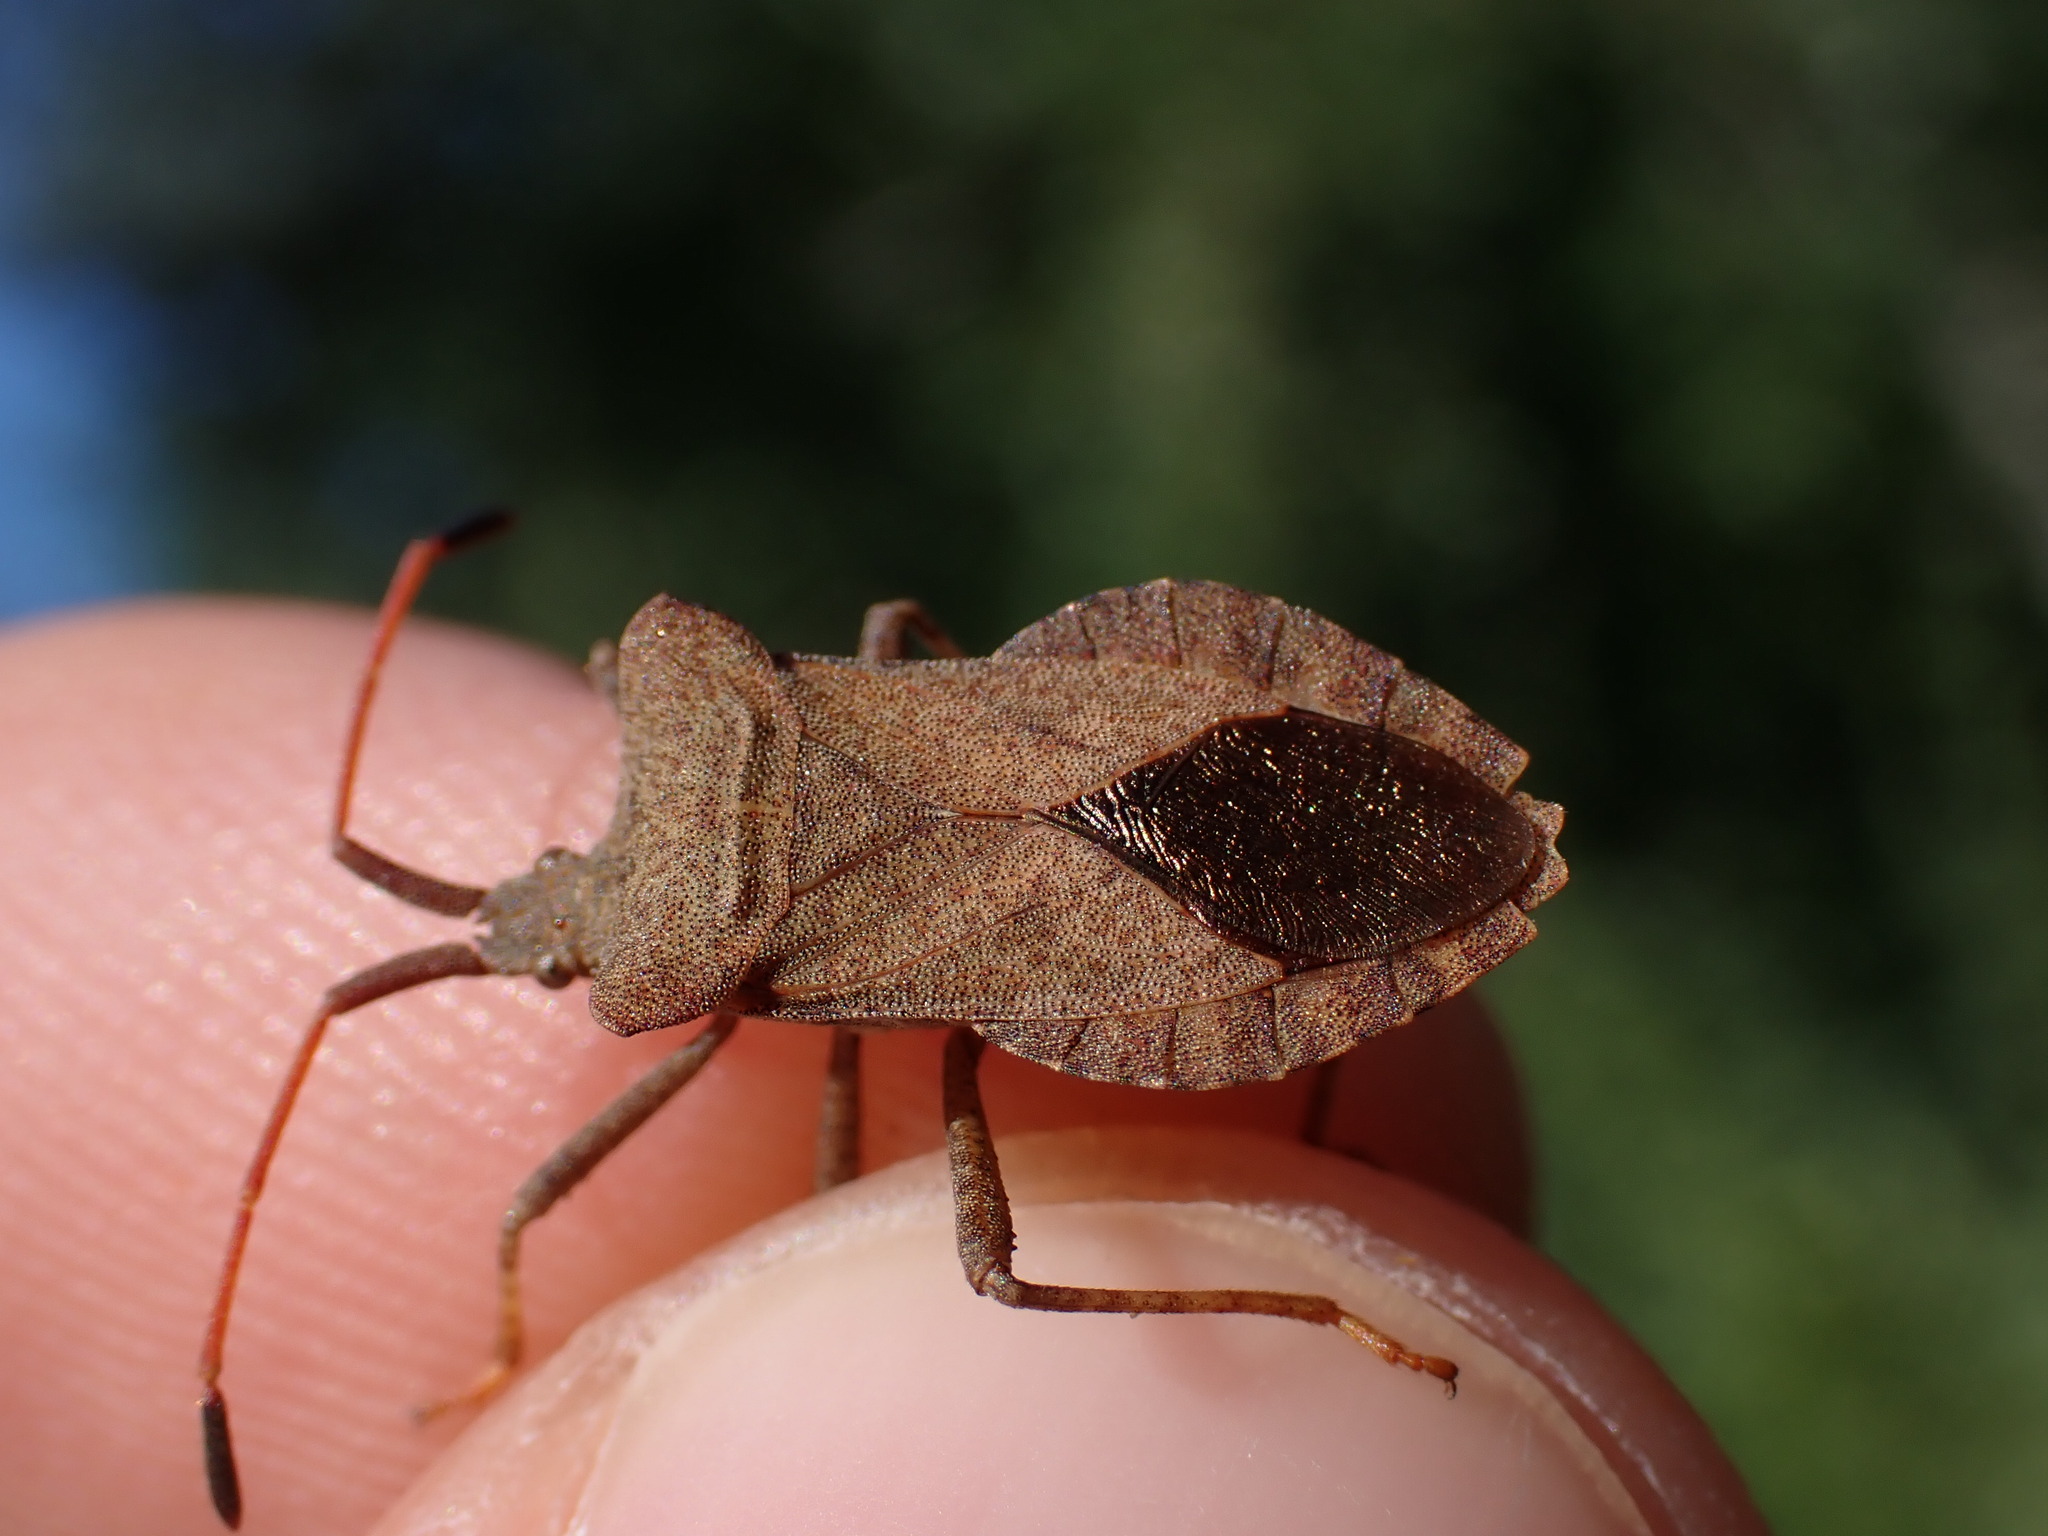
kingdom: Animalia
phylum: Arthropoda
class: Insecta
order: Hemiptera
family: Coreidae
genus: Coreus
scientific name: Coreus marginatus
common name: Dock bug
